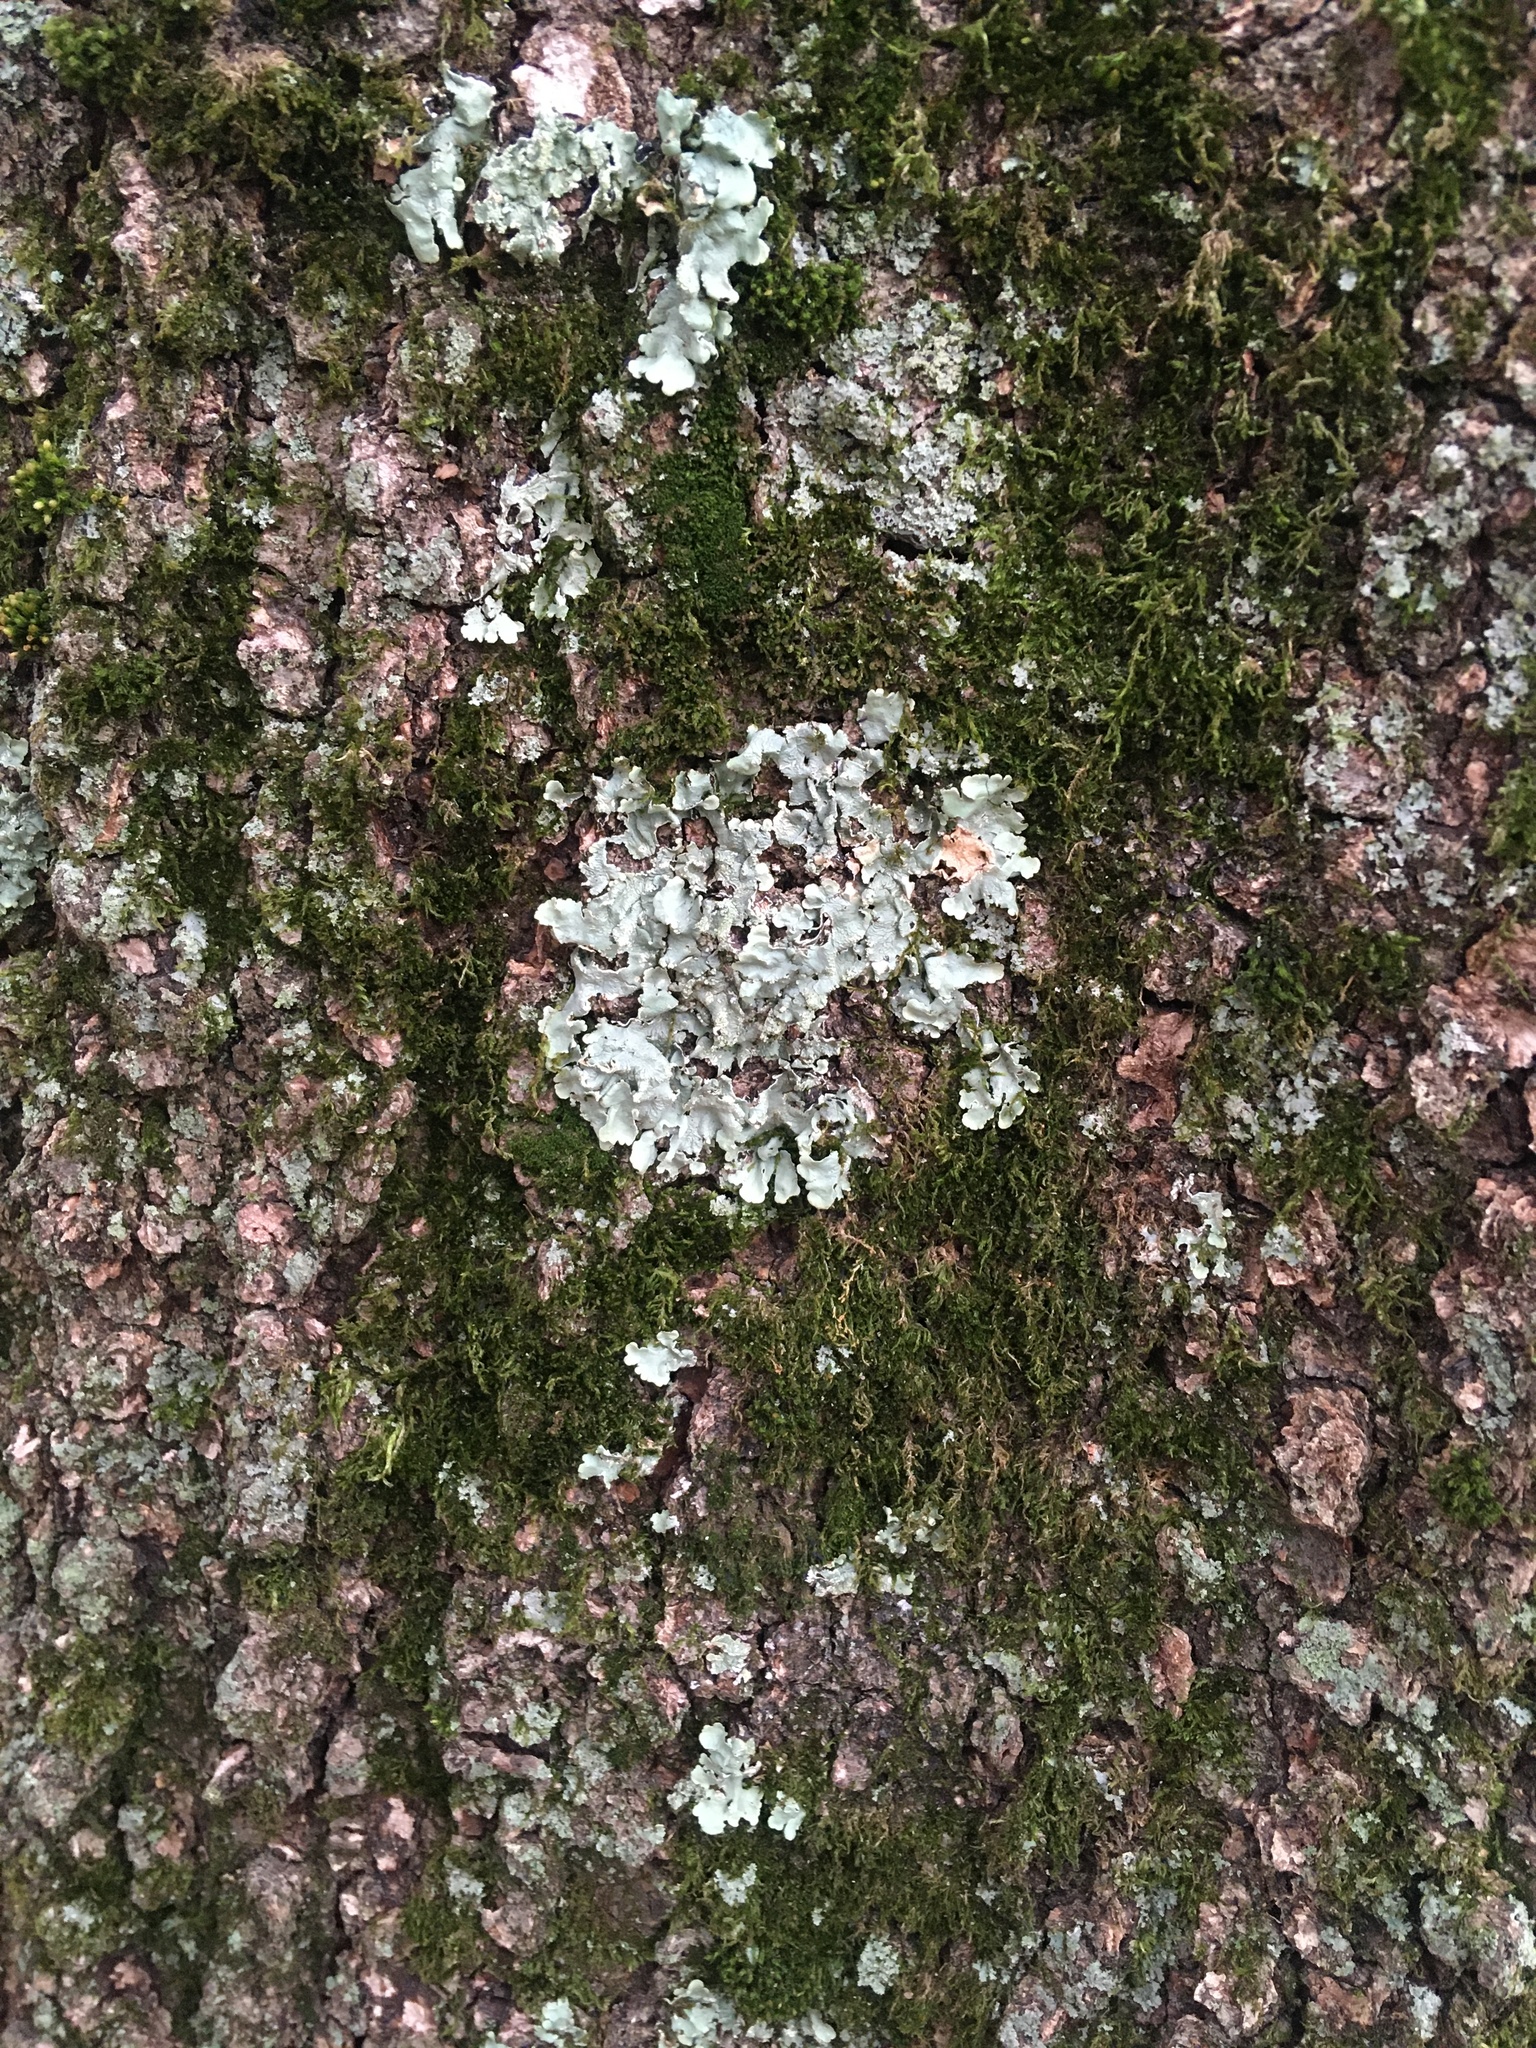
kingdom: Fungi
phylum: Ascomycota
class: Lecanoromycetes
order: Lecanorales
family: Parmeliaceae
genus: Flavoparmelia
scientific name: Flavoparmelia caperata
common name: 40-mile per hour lichen
